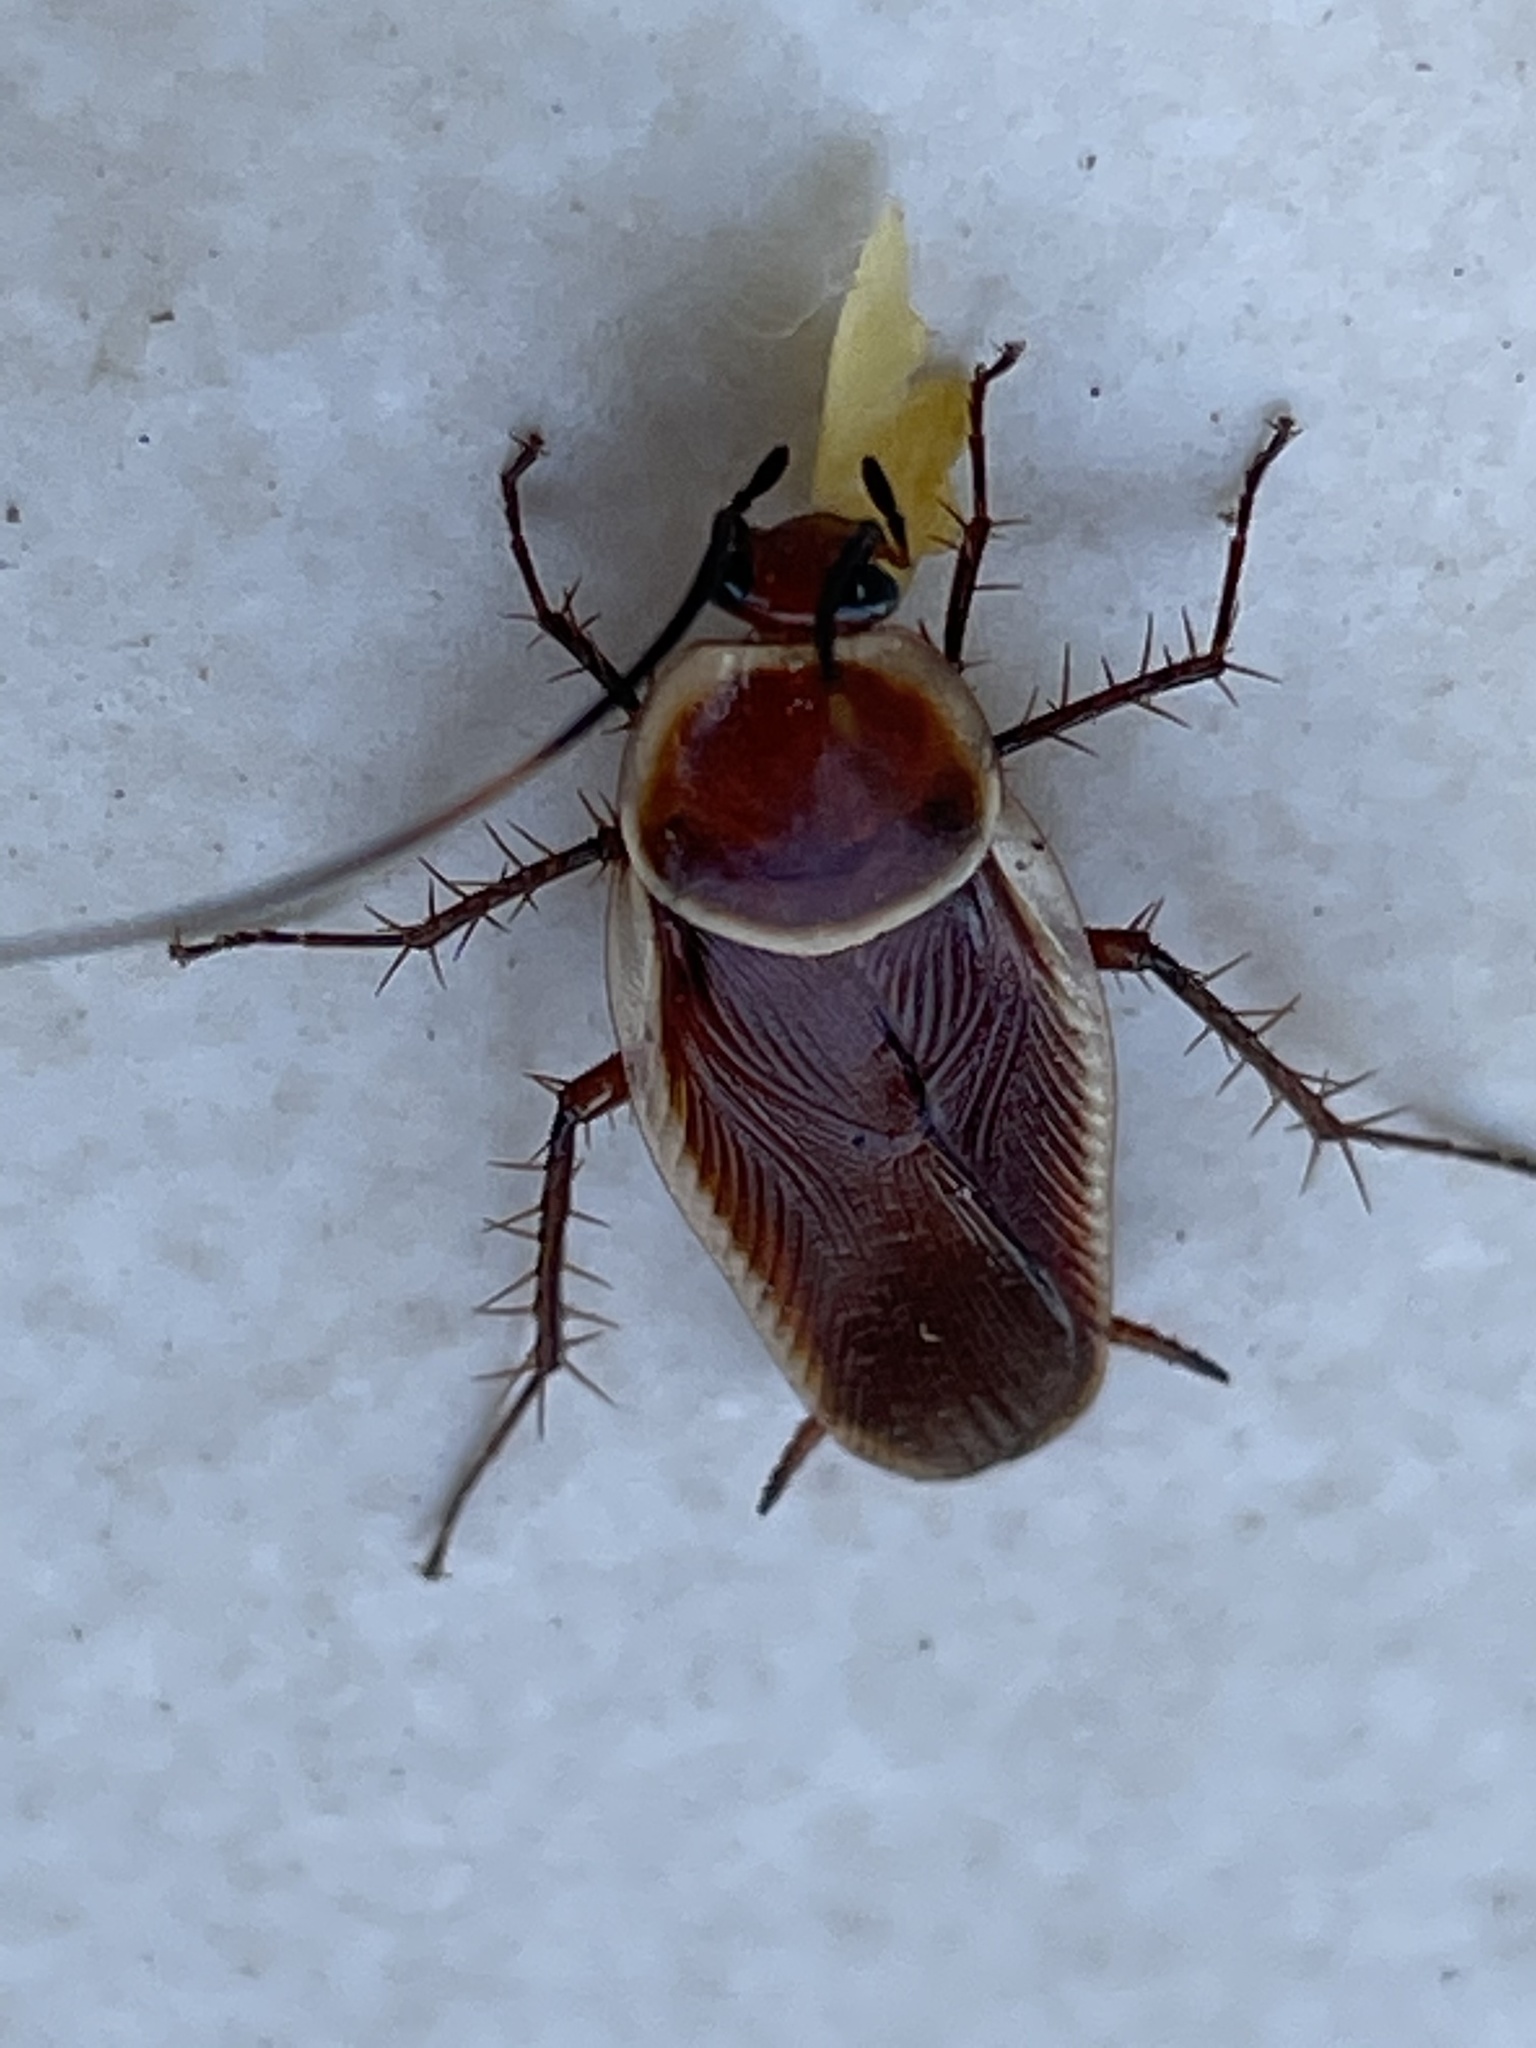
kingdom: Animalia
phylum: Arthropoda
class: Insecta
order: Blattodea
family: Ectobiidae
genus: Pseudomops
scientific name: Pseudomops septentrionalis
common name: Pale-bordered field cockroach
